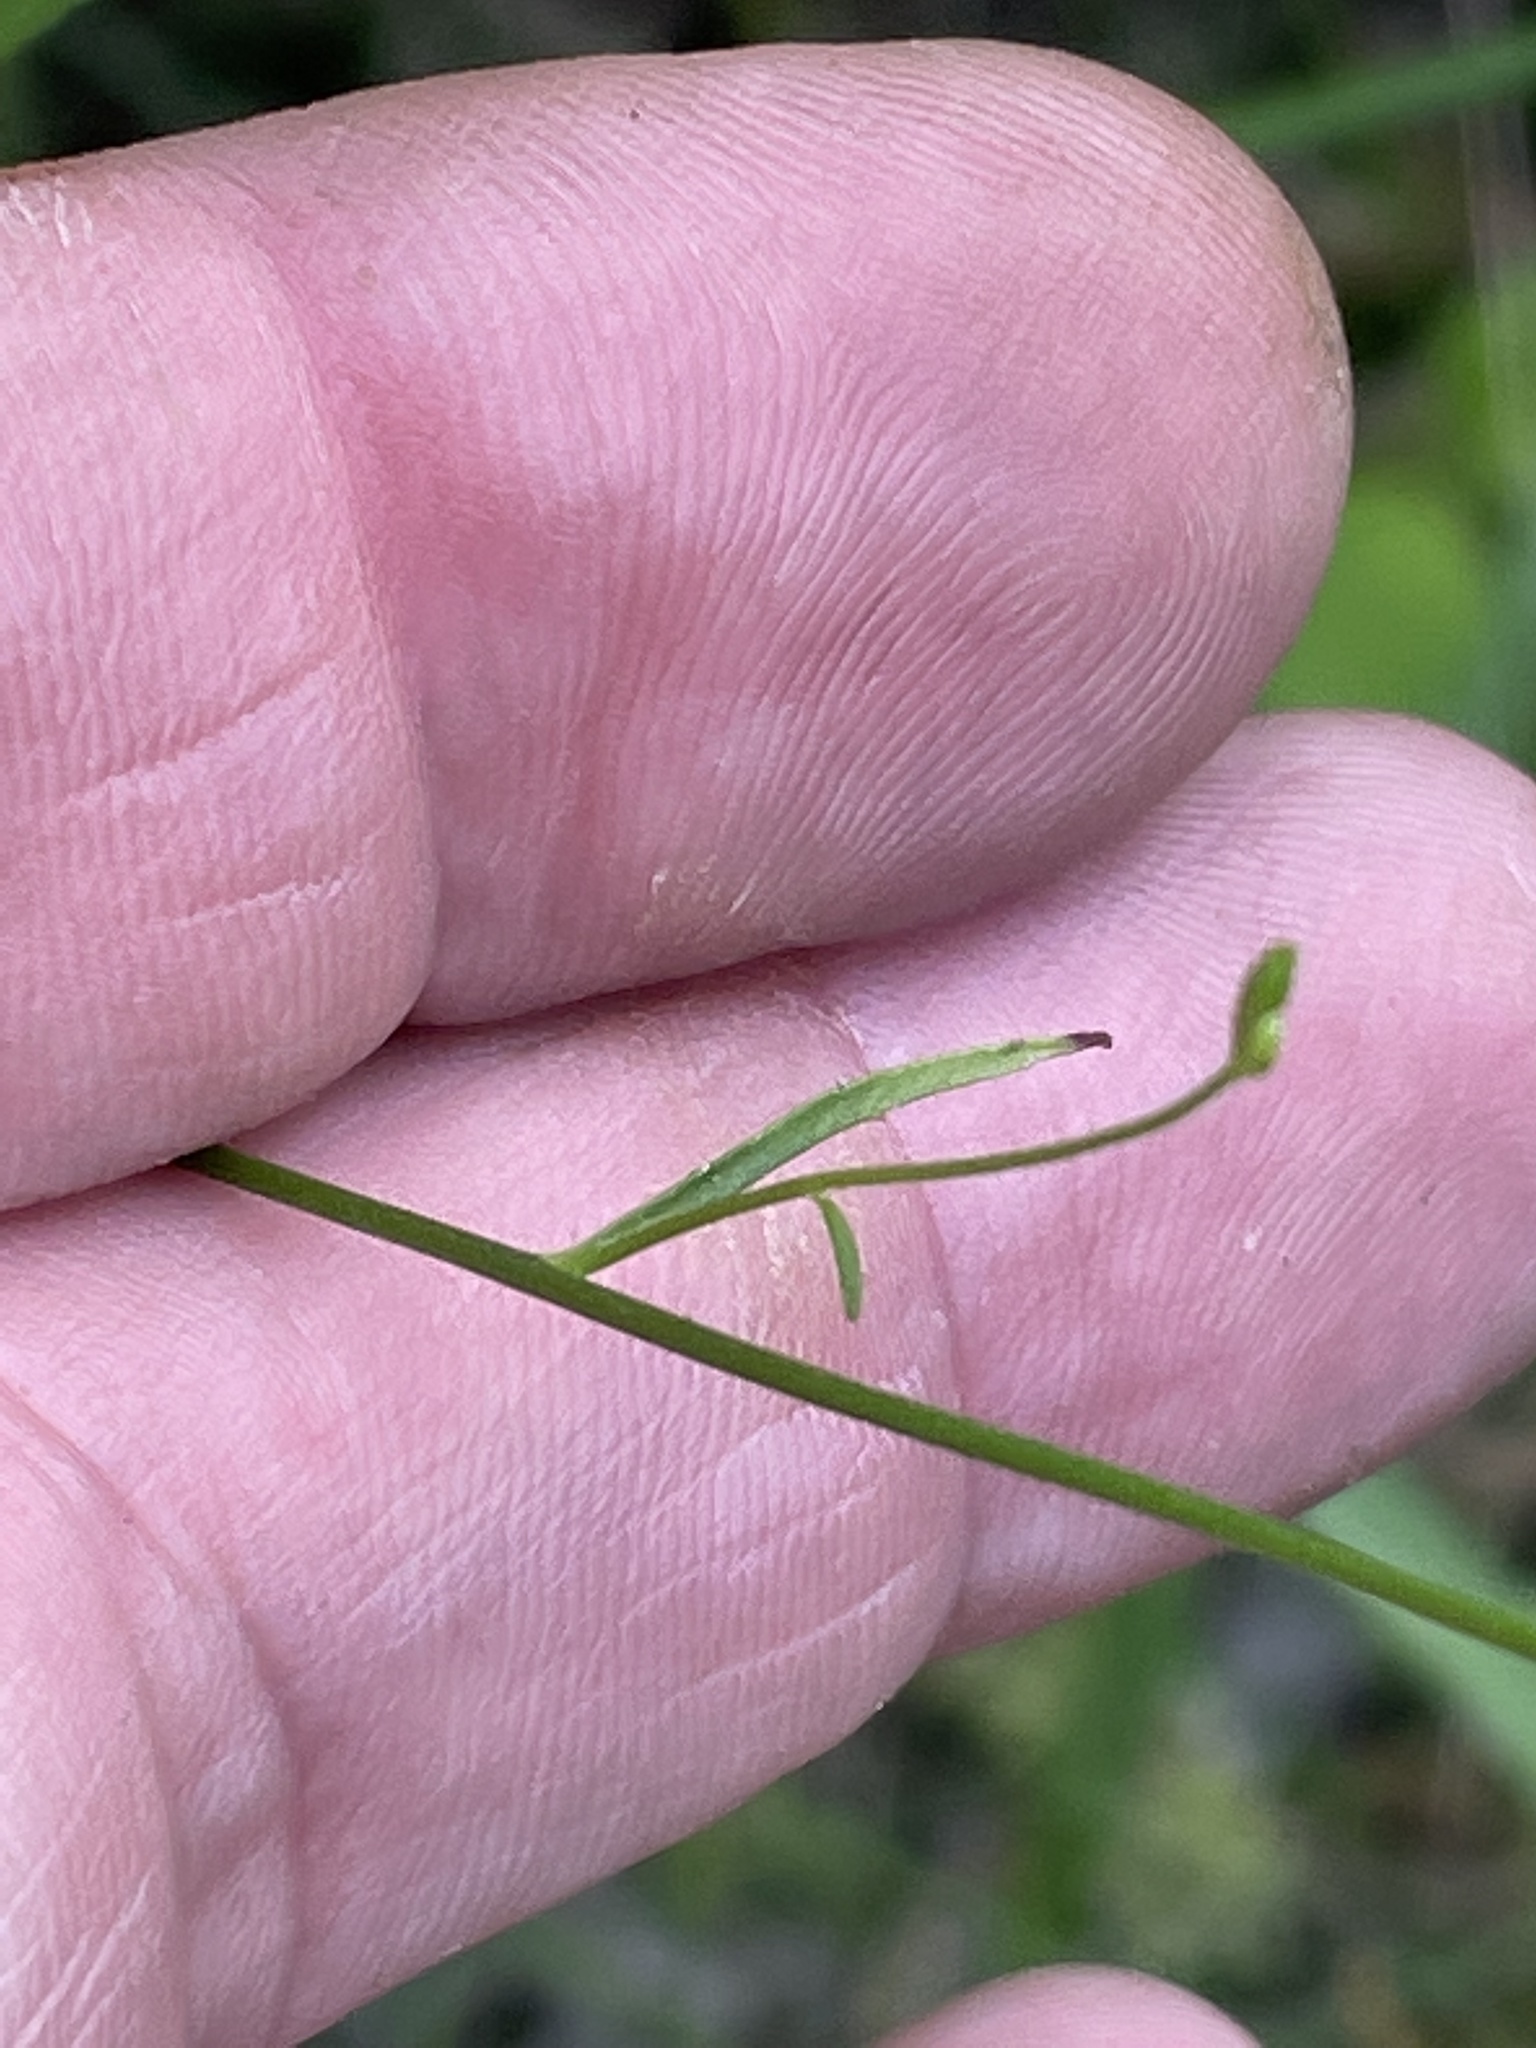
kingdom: Plantae
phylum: Tracheophyta
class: Magnoliopsida
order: Asterales
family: Campanulaceae
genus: Lobelia
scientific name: Lobelia nuttallii
